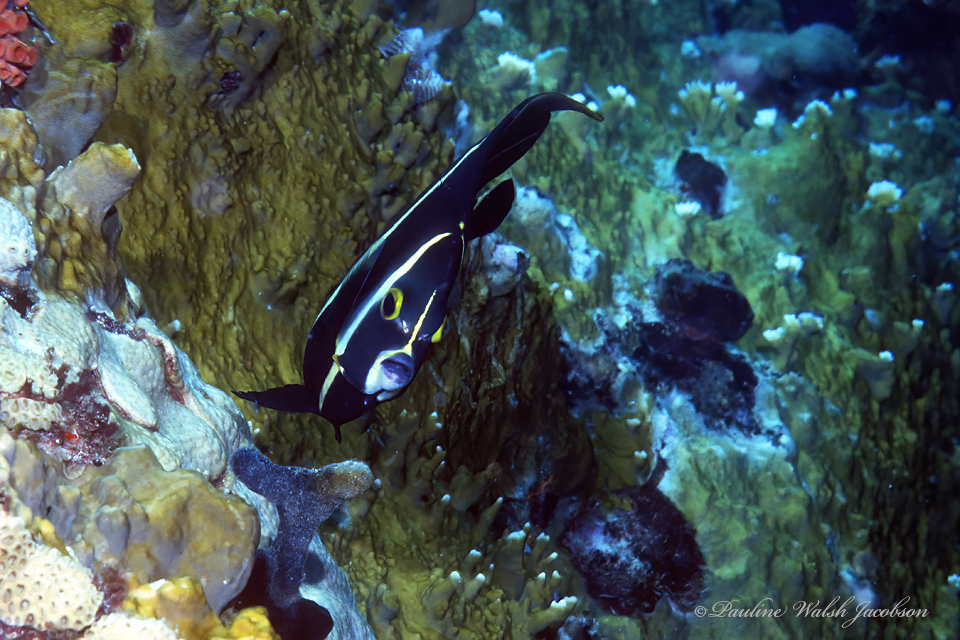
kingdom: Animalia
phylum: Chordata
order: Perciformes
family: Pomacanthidae
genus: Pomacanthus
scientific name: Pomacanthus arcuatus
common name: Gray angelfish
